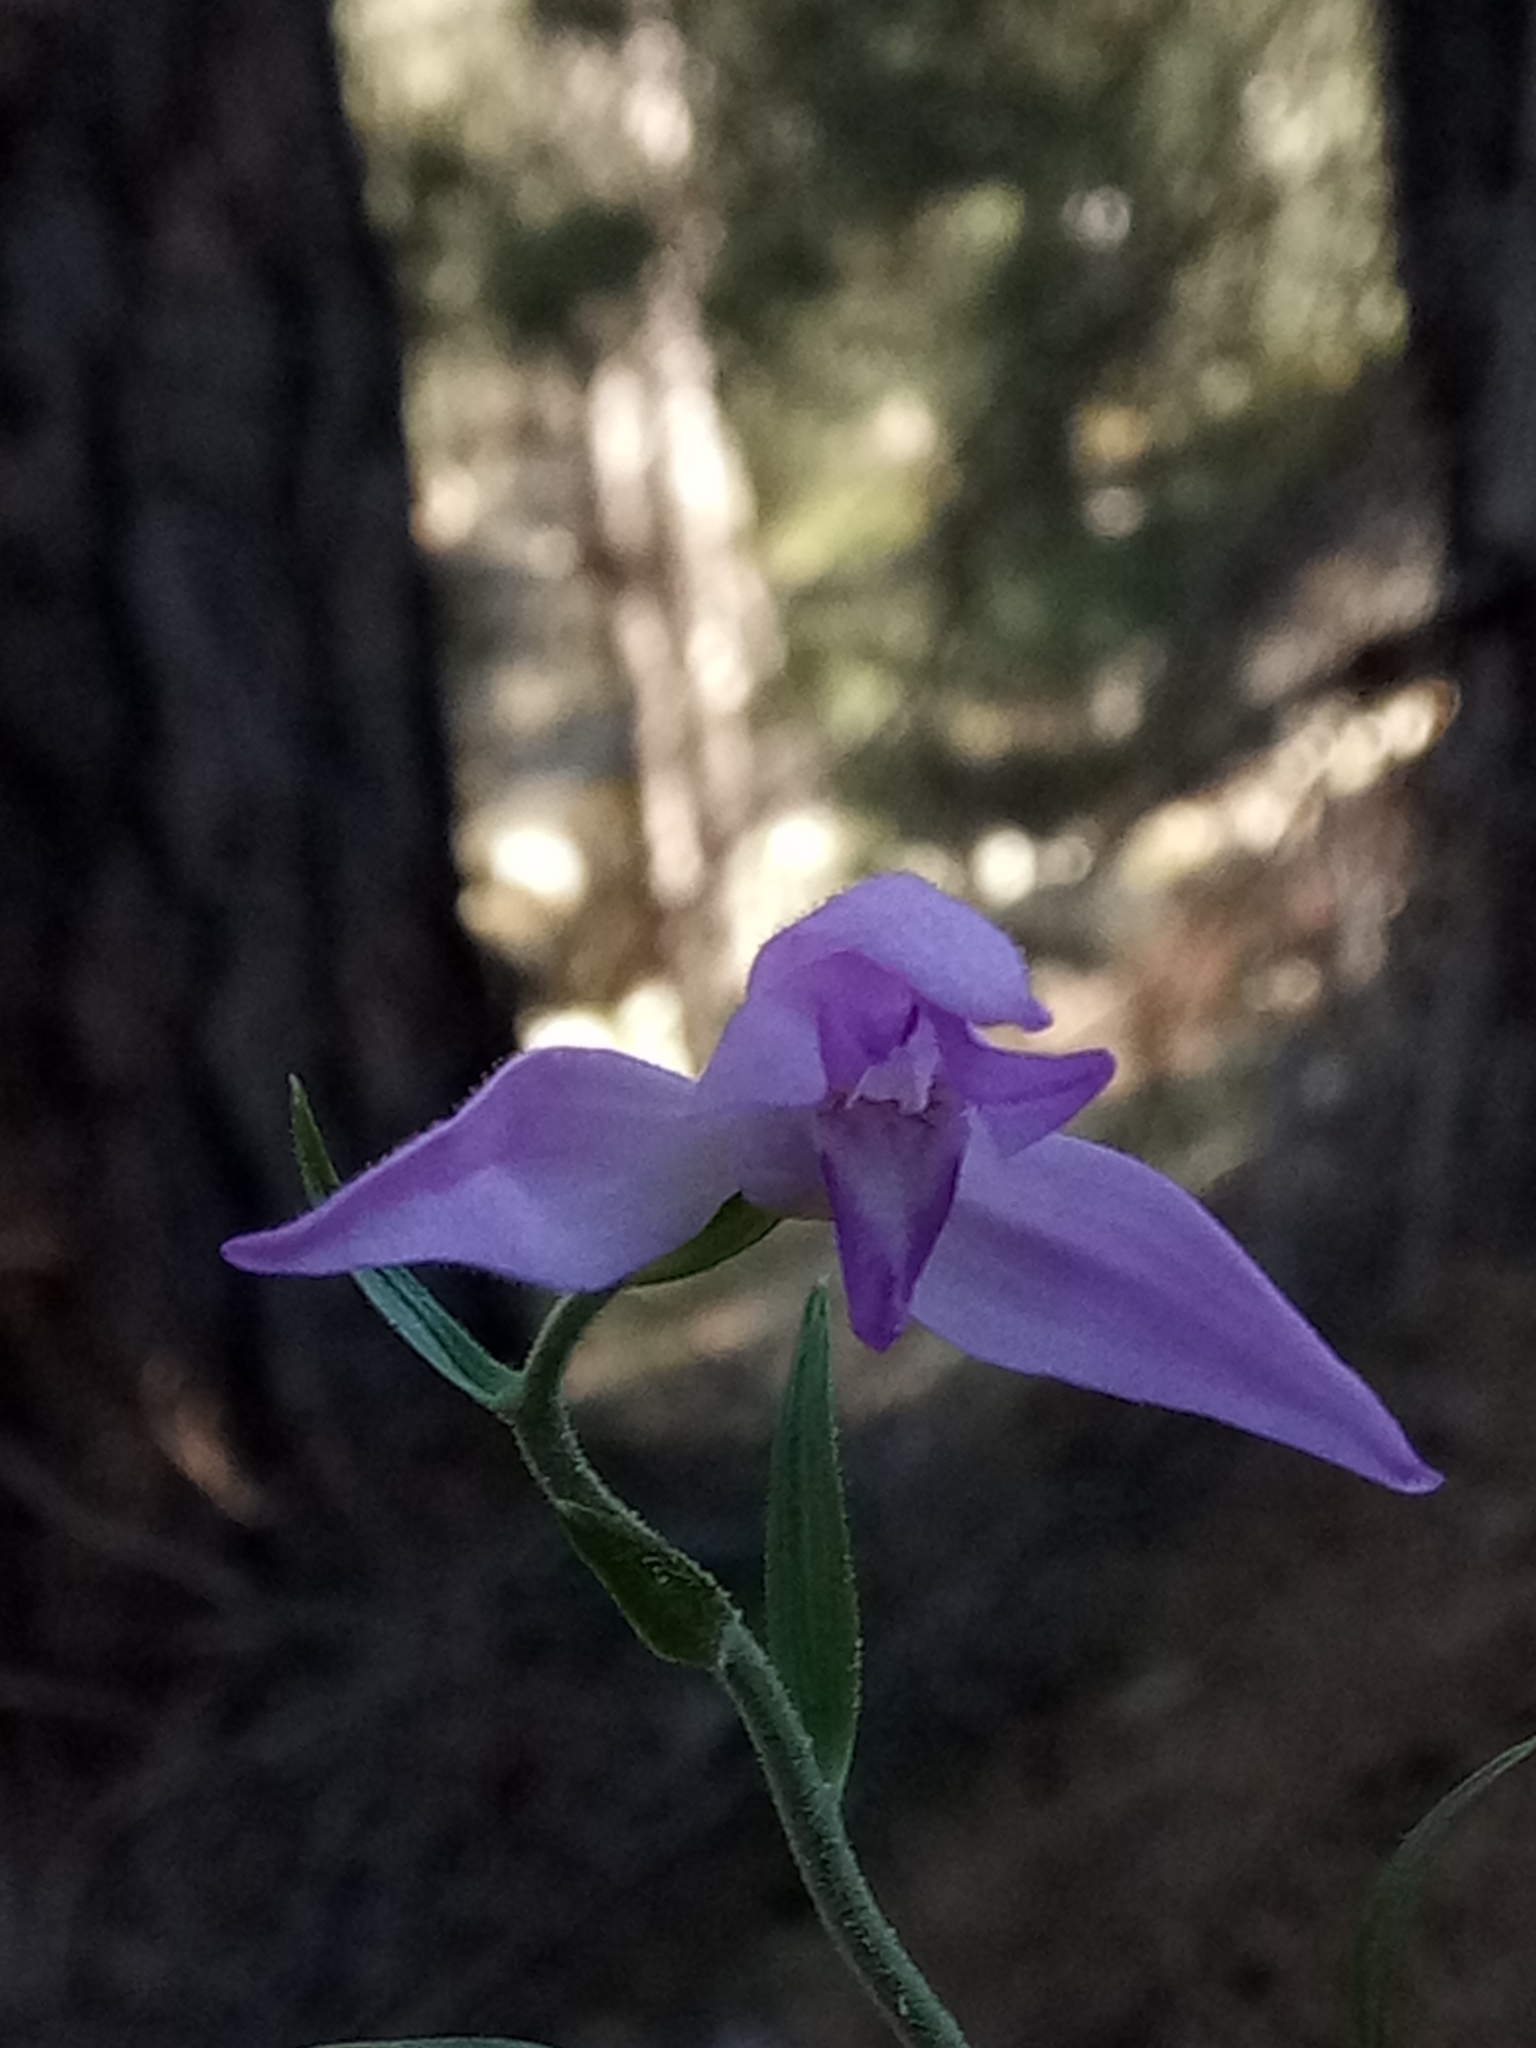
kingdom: Plantae
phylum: Tracheophyta
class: Liliopsida
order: Asparagales
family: Orchidaceae
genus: Cephalanthera
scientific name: Cephalanthera rubra
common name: Red helleborine
